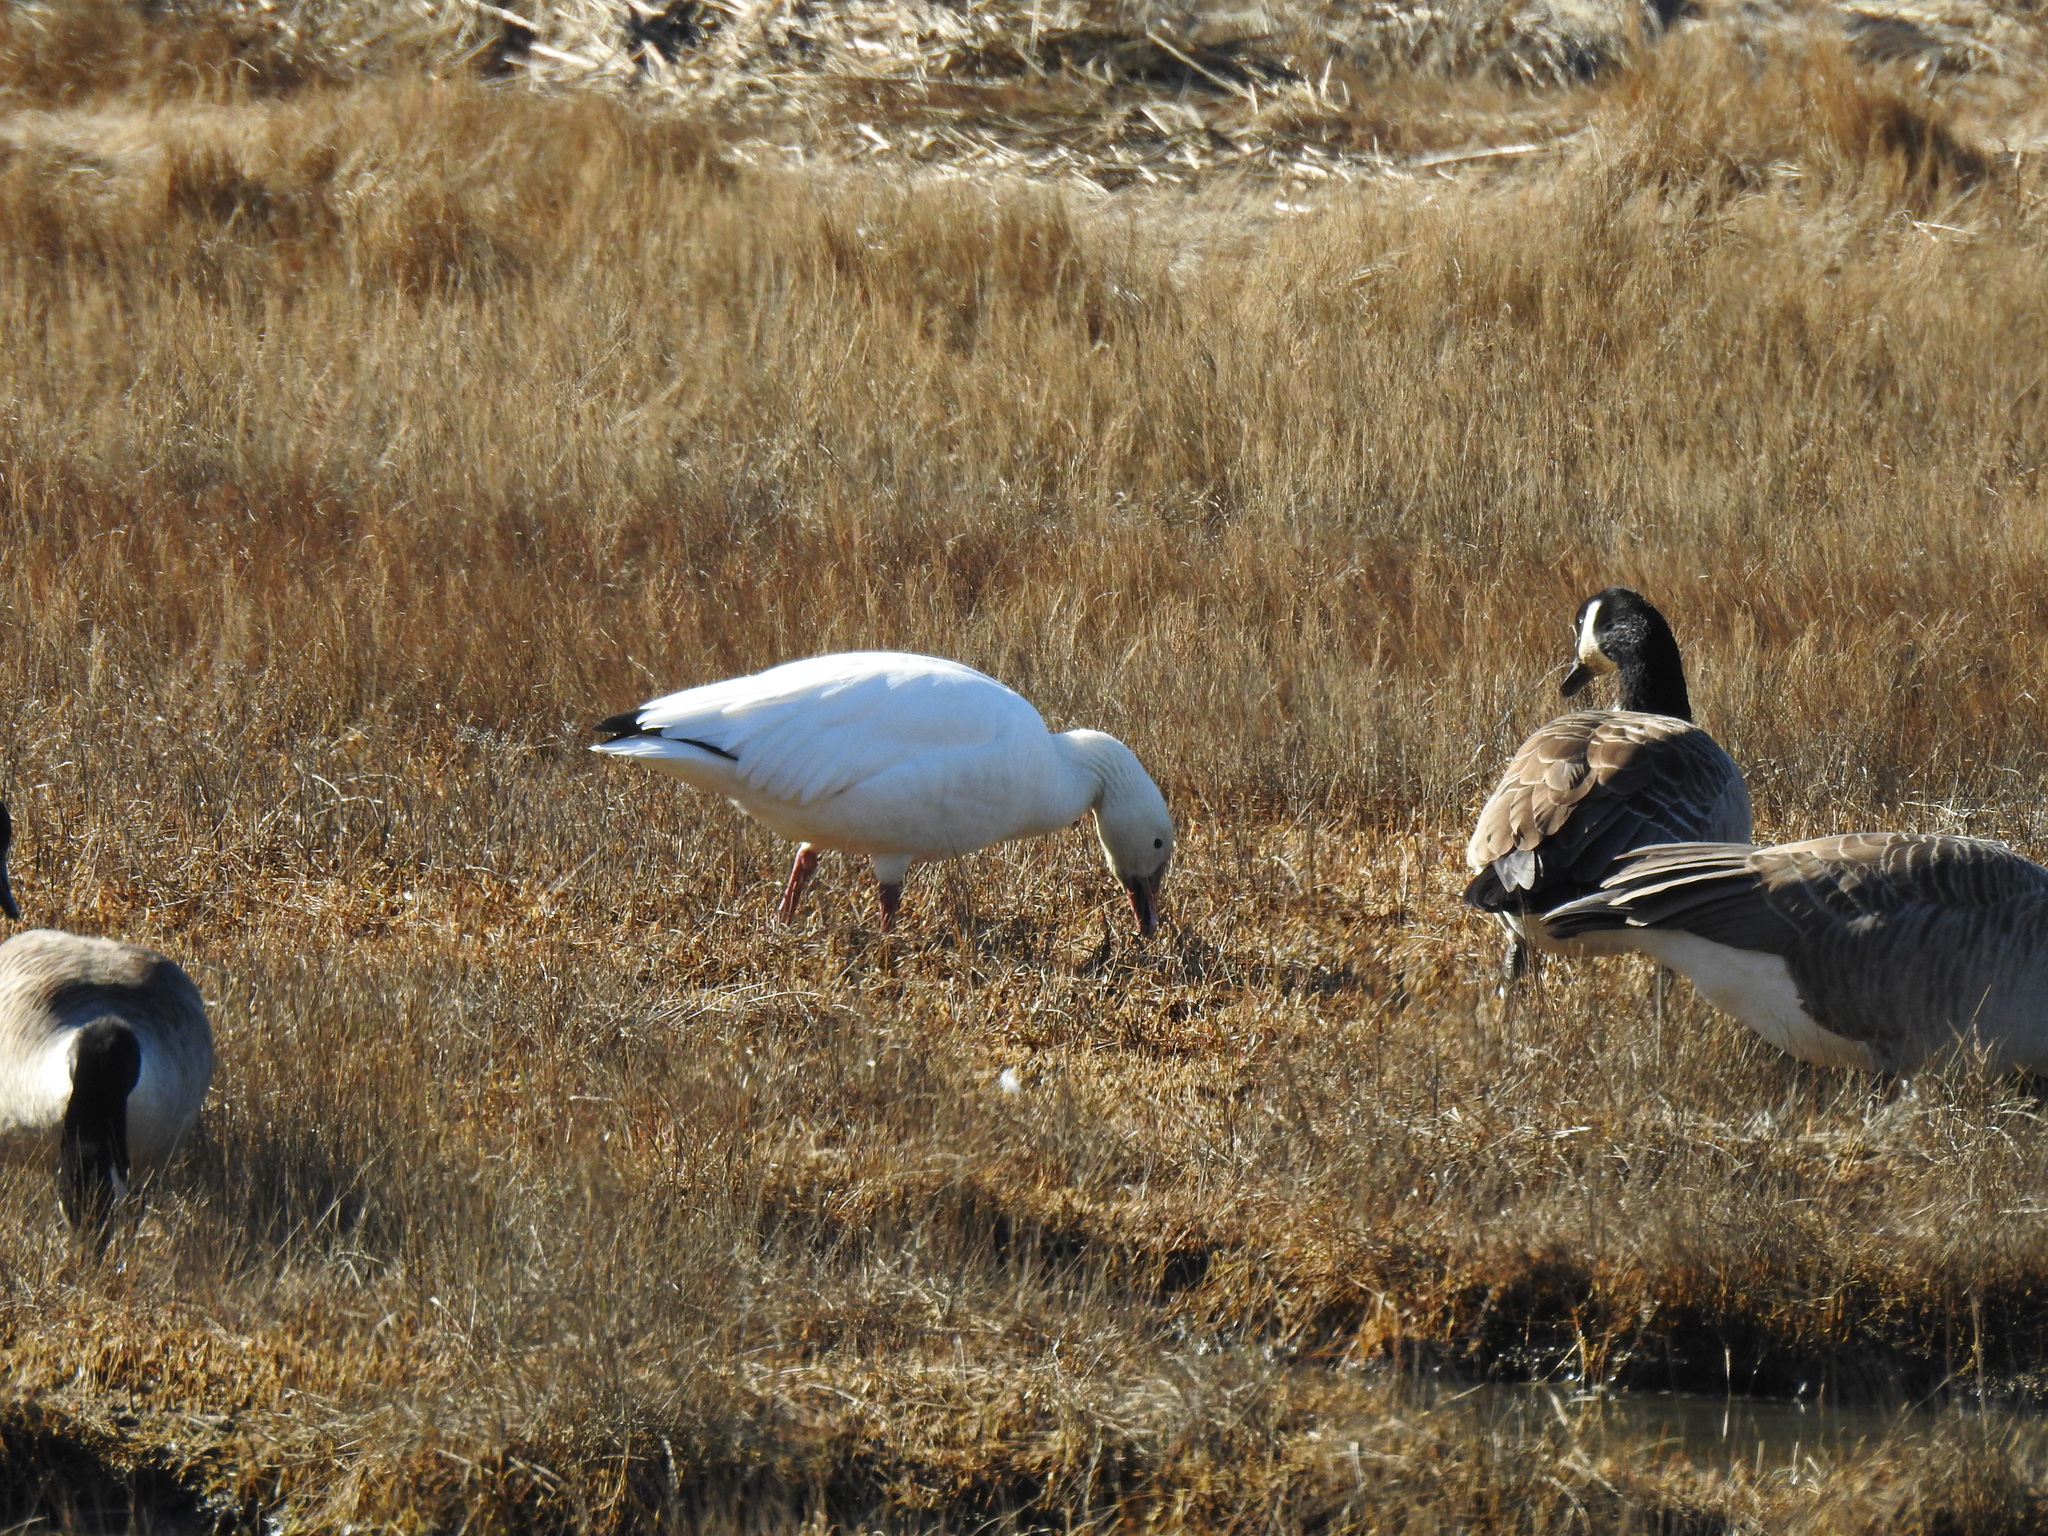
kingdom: Animalia
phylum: Chordata
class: Aves
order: Anseriformes
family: Anatidae
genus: Anser
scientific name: Anser caerulescens
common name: Snow goose
